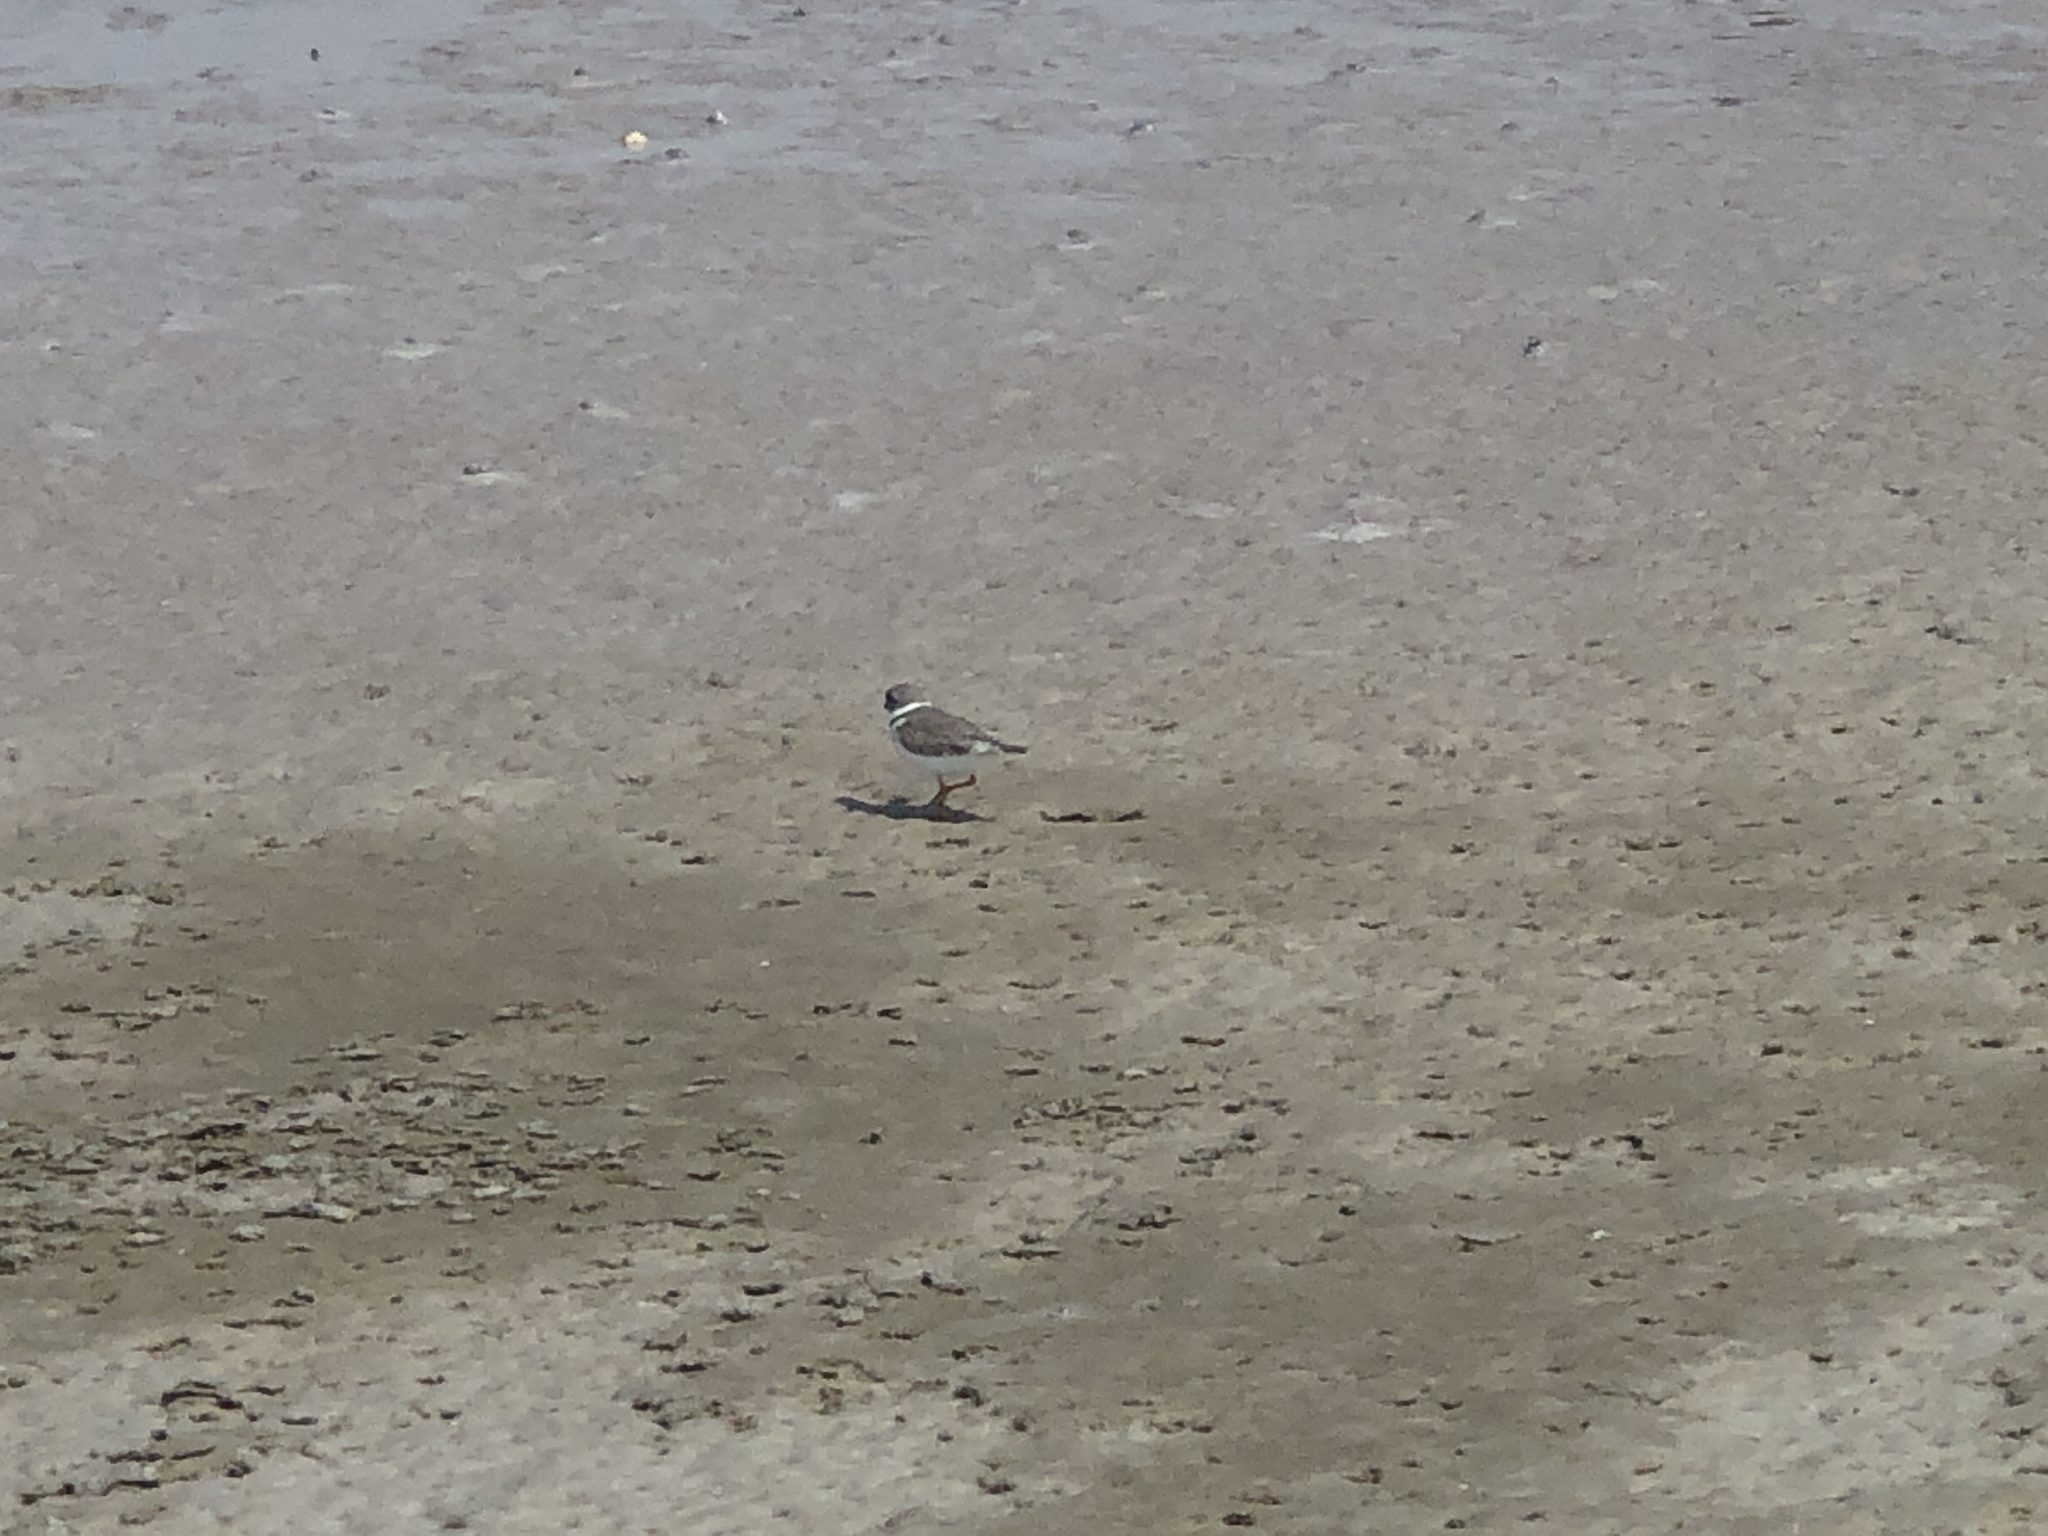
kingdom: Animalia
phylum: Chordata
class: Aves
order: Charadriiformes
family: Charadriidae
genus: Charadrius
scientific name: Charadrius semipalmatus
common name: Semipalmated plover
